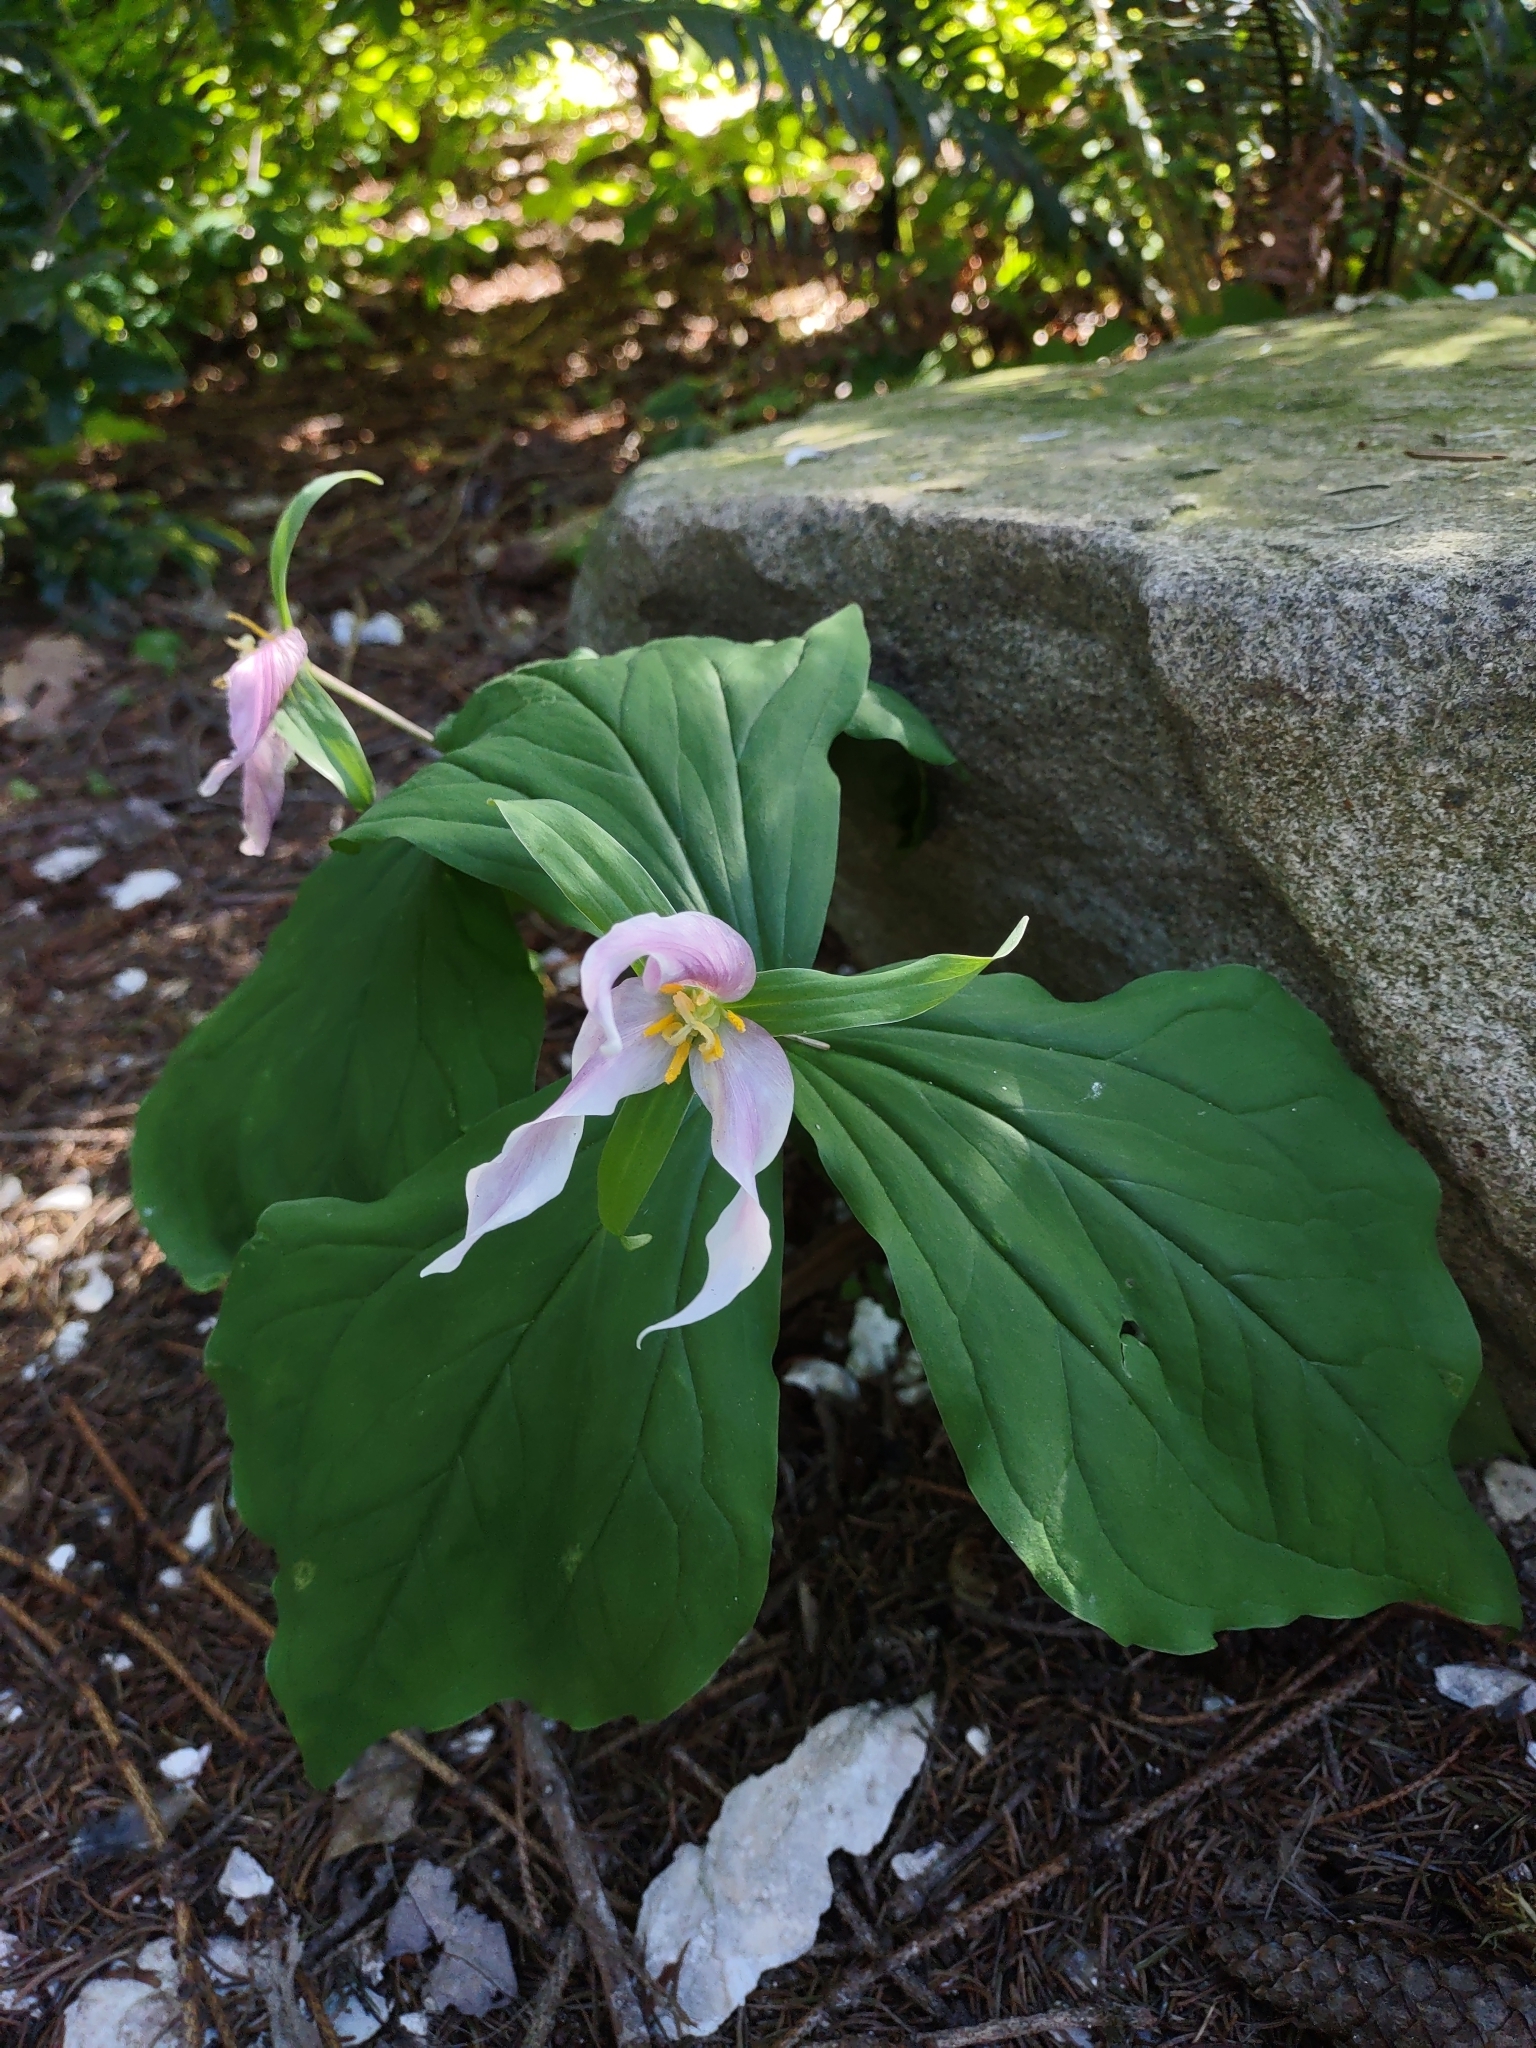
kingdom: Plantae
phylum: Tracheophyta
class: Liliopsida
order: Liliales
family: Melanthiaceae
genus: Trillium
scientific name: Trillium ovatum
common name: Pacific trillium
